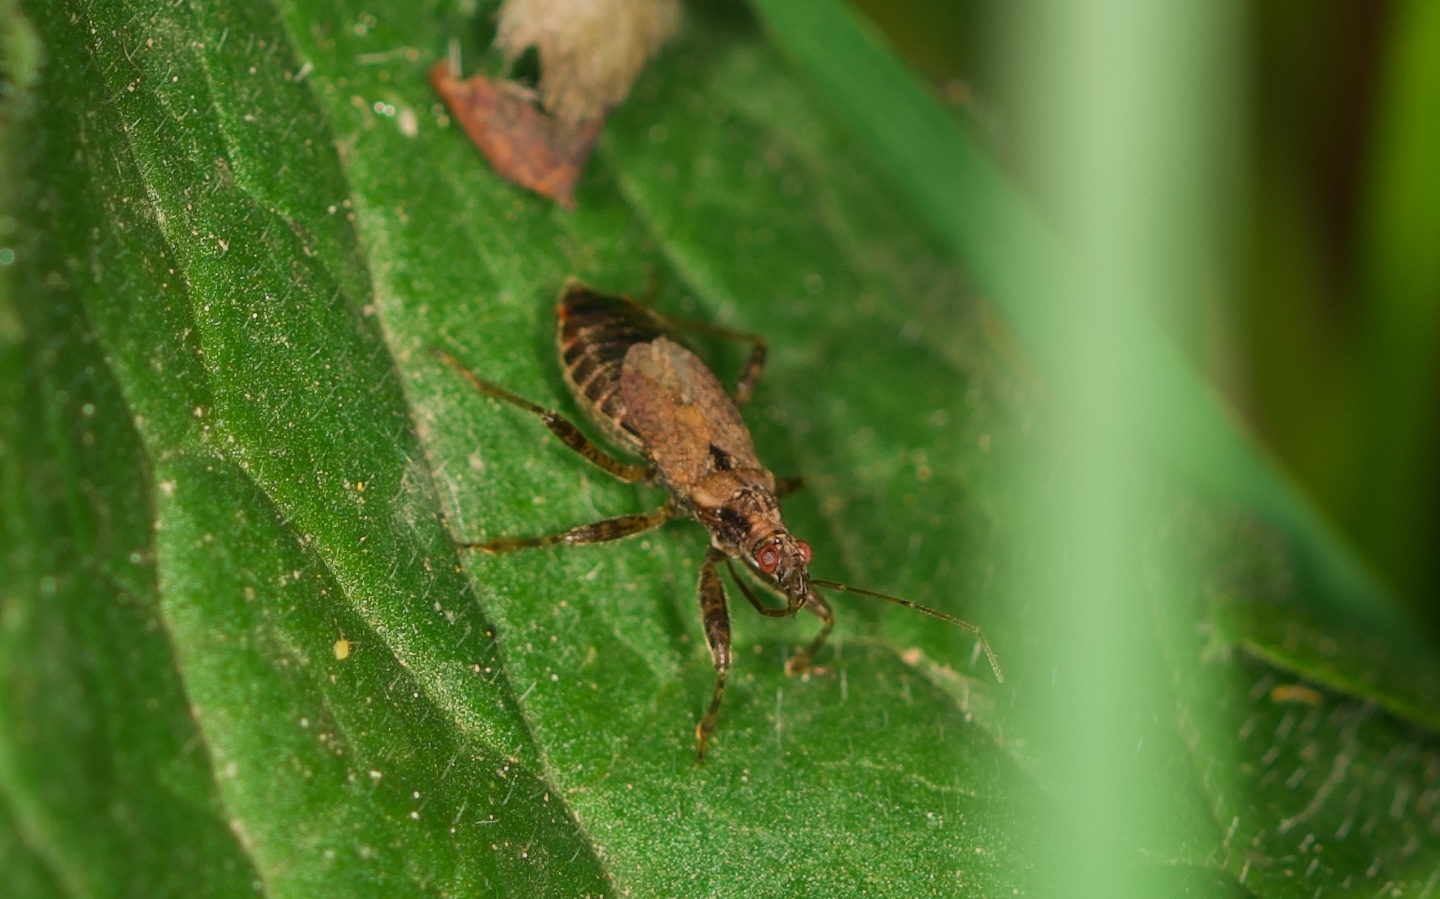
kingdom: Animalia
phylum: Arthropoda
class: Insecta
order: Hemiptera
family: Nabidae
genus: Himacerus
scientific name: Himacerus mirmicoides
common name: Ant damsel bug
